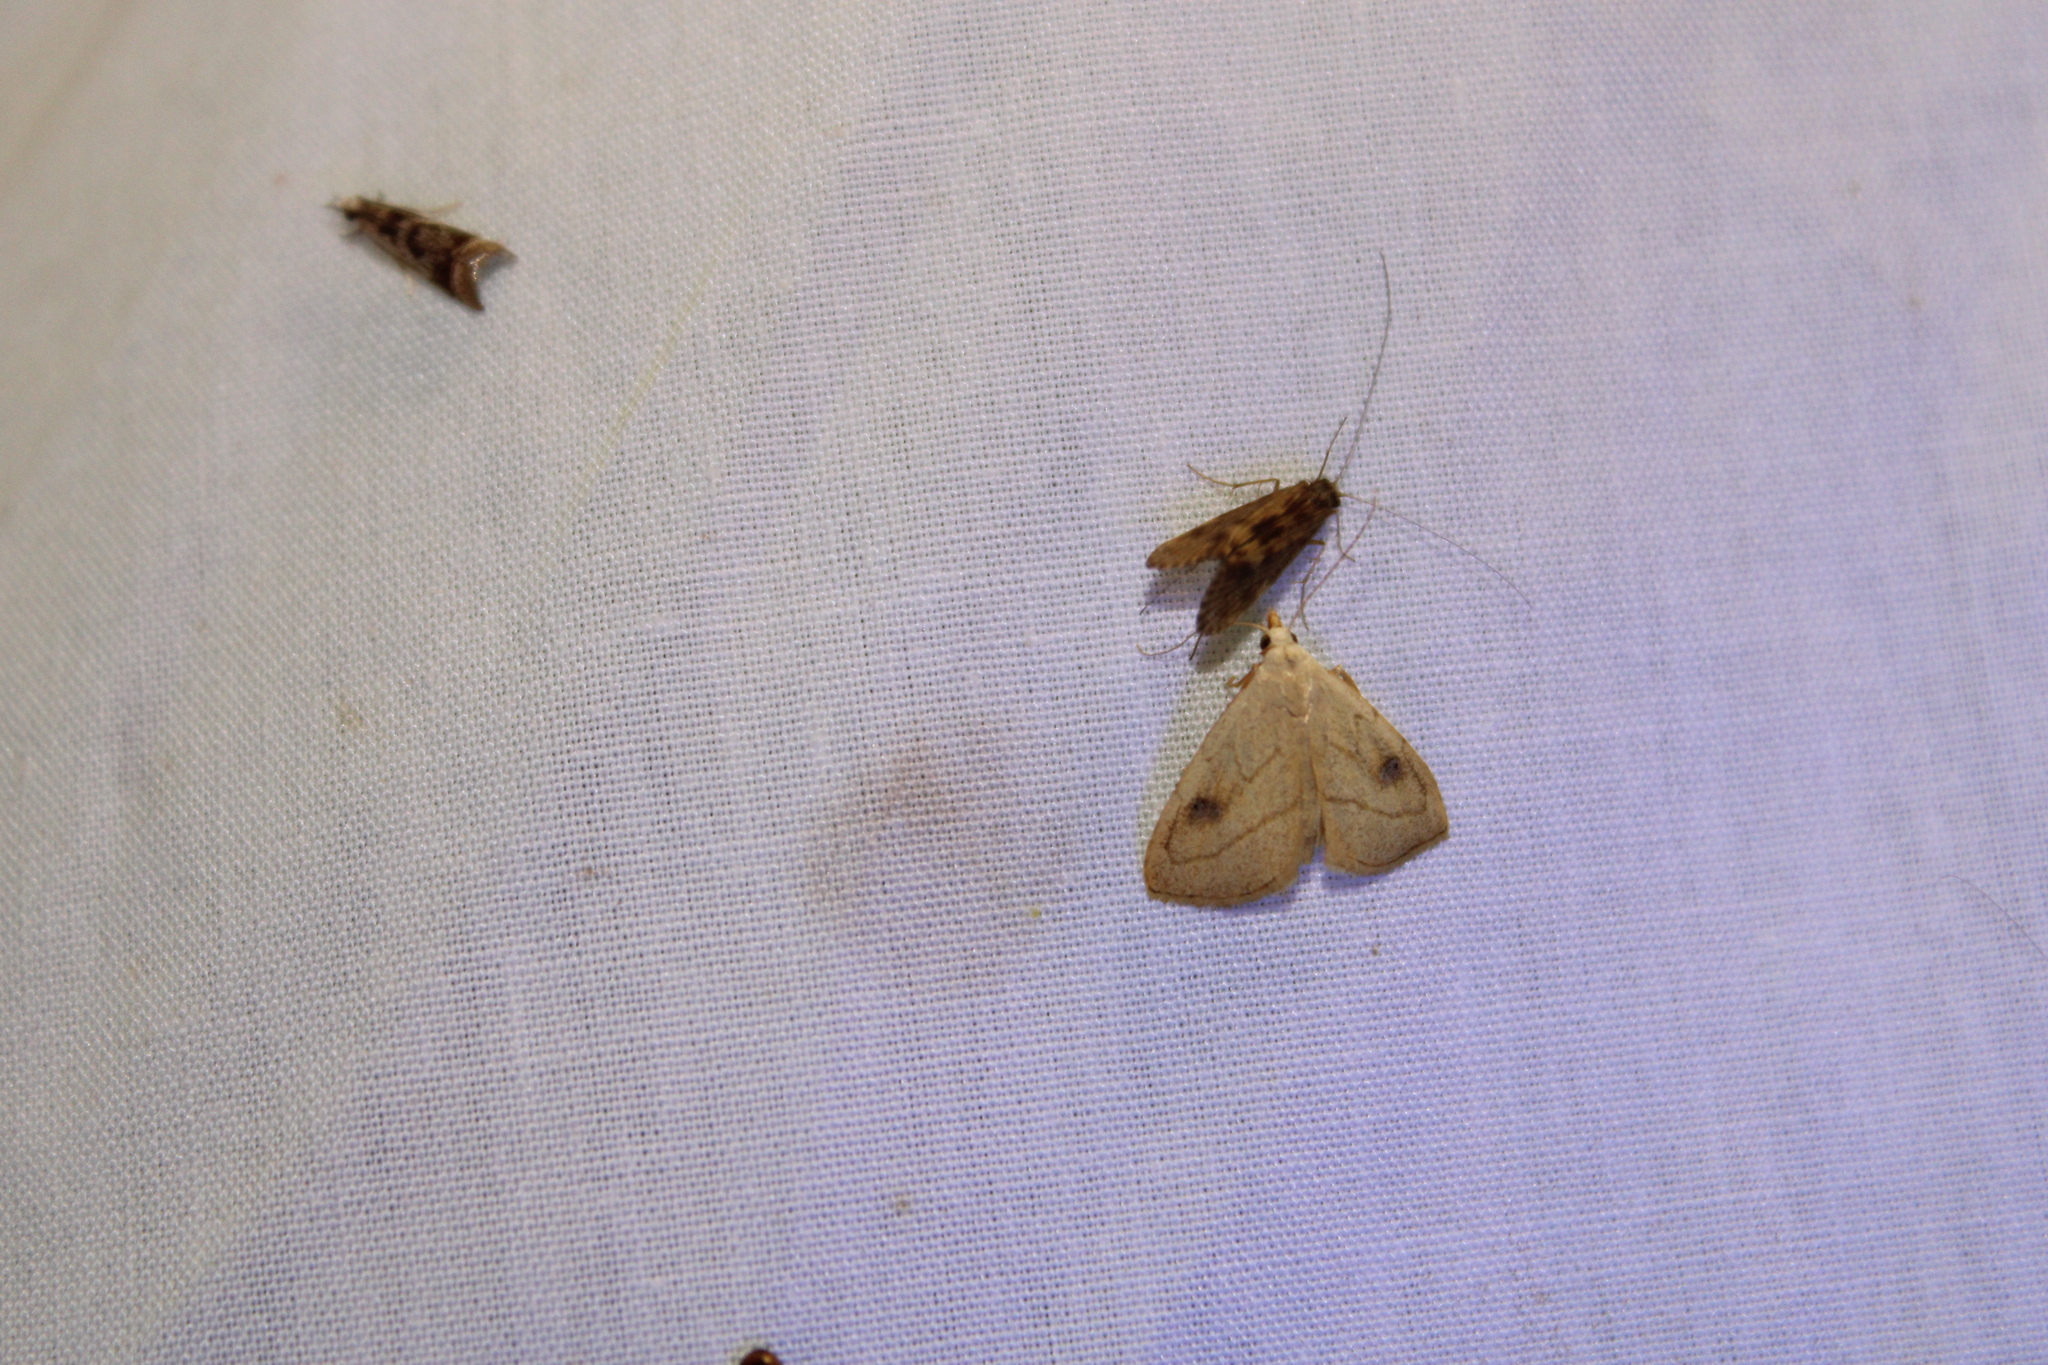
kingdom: Animalia
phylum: Arthropoda
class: Insecta
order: Lepidoptera
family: Erebidae
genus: Rivula
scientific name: Rivula propinqualis
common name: Spotted grass moth
